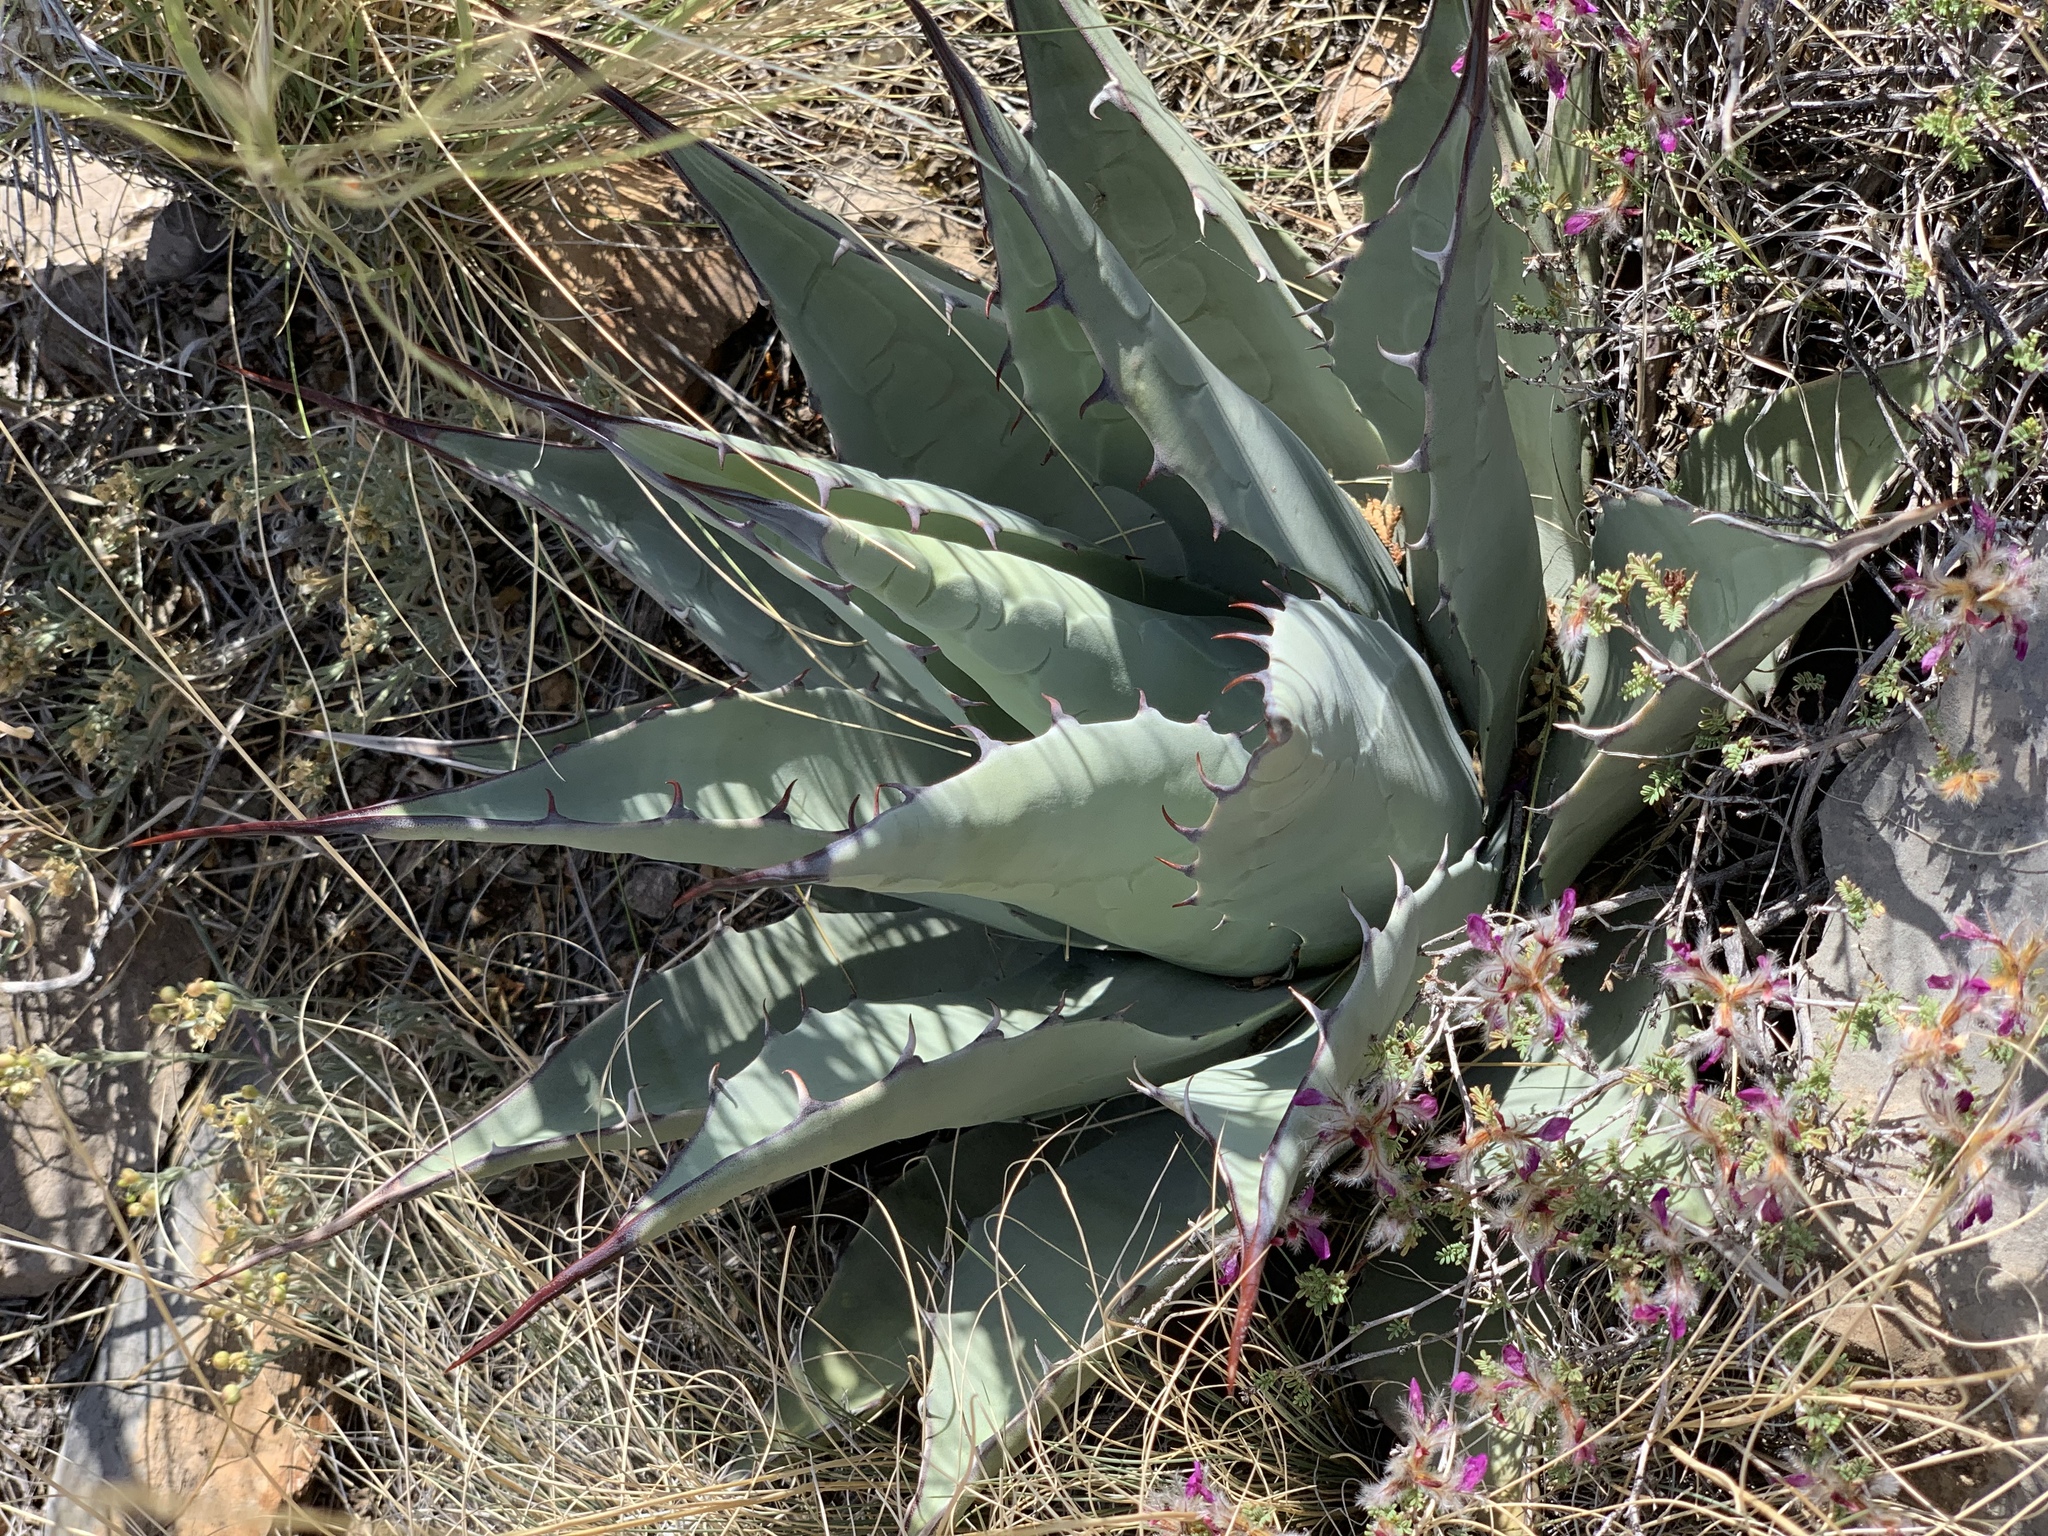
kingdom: Plantae
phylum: Tracheophyta
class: Liliopsida
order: Asparagales
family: Asparagaceae
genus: Agave
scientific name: Agave parryi
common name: Parry's agave
